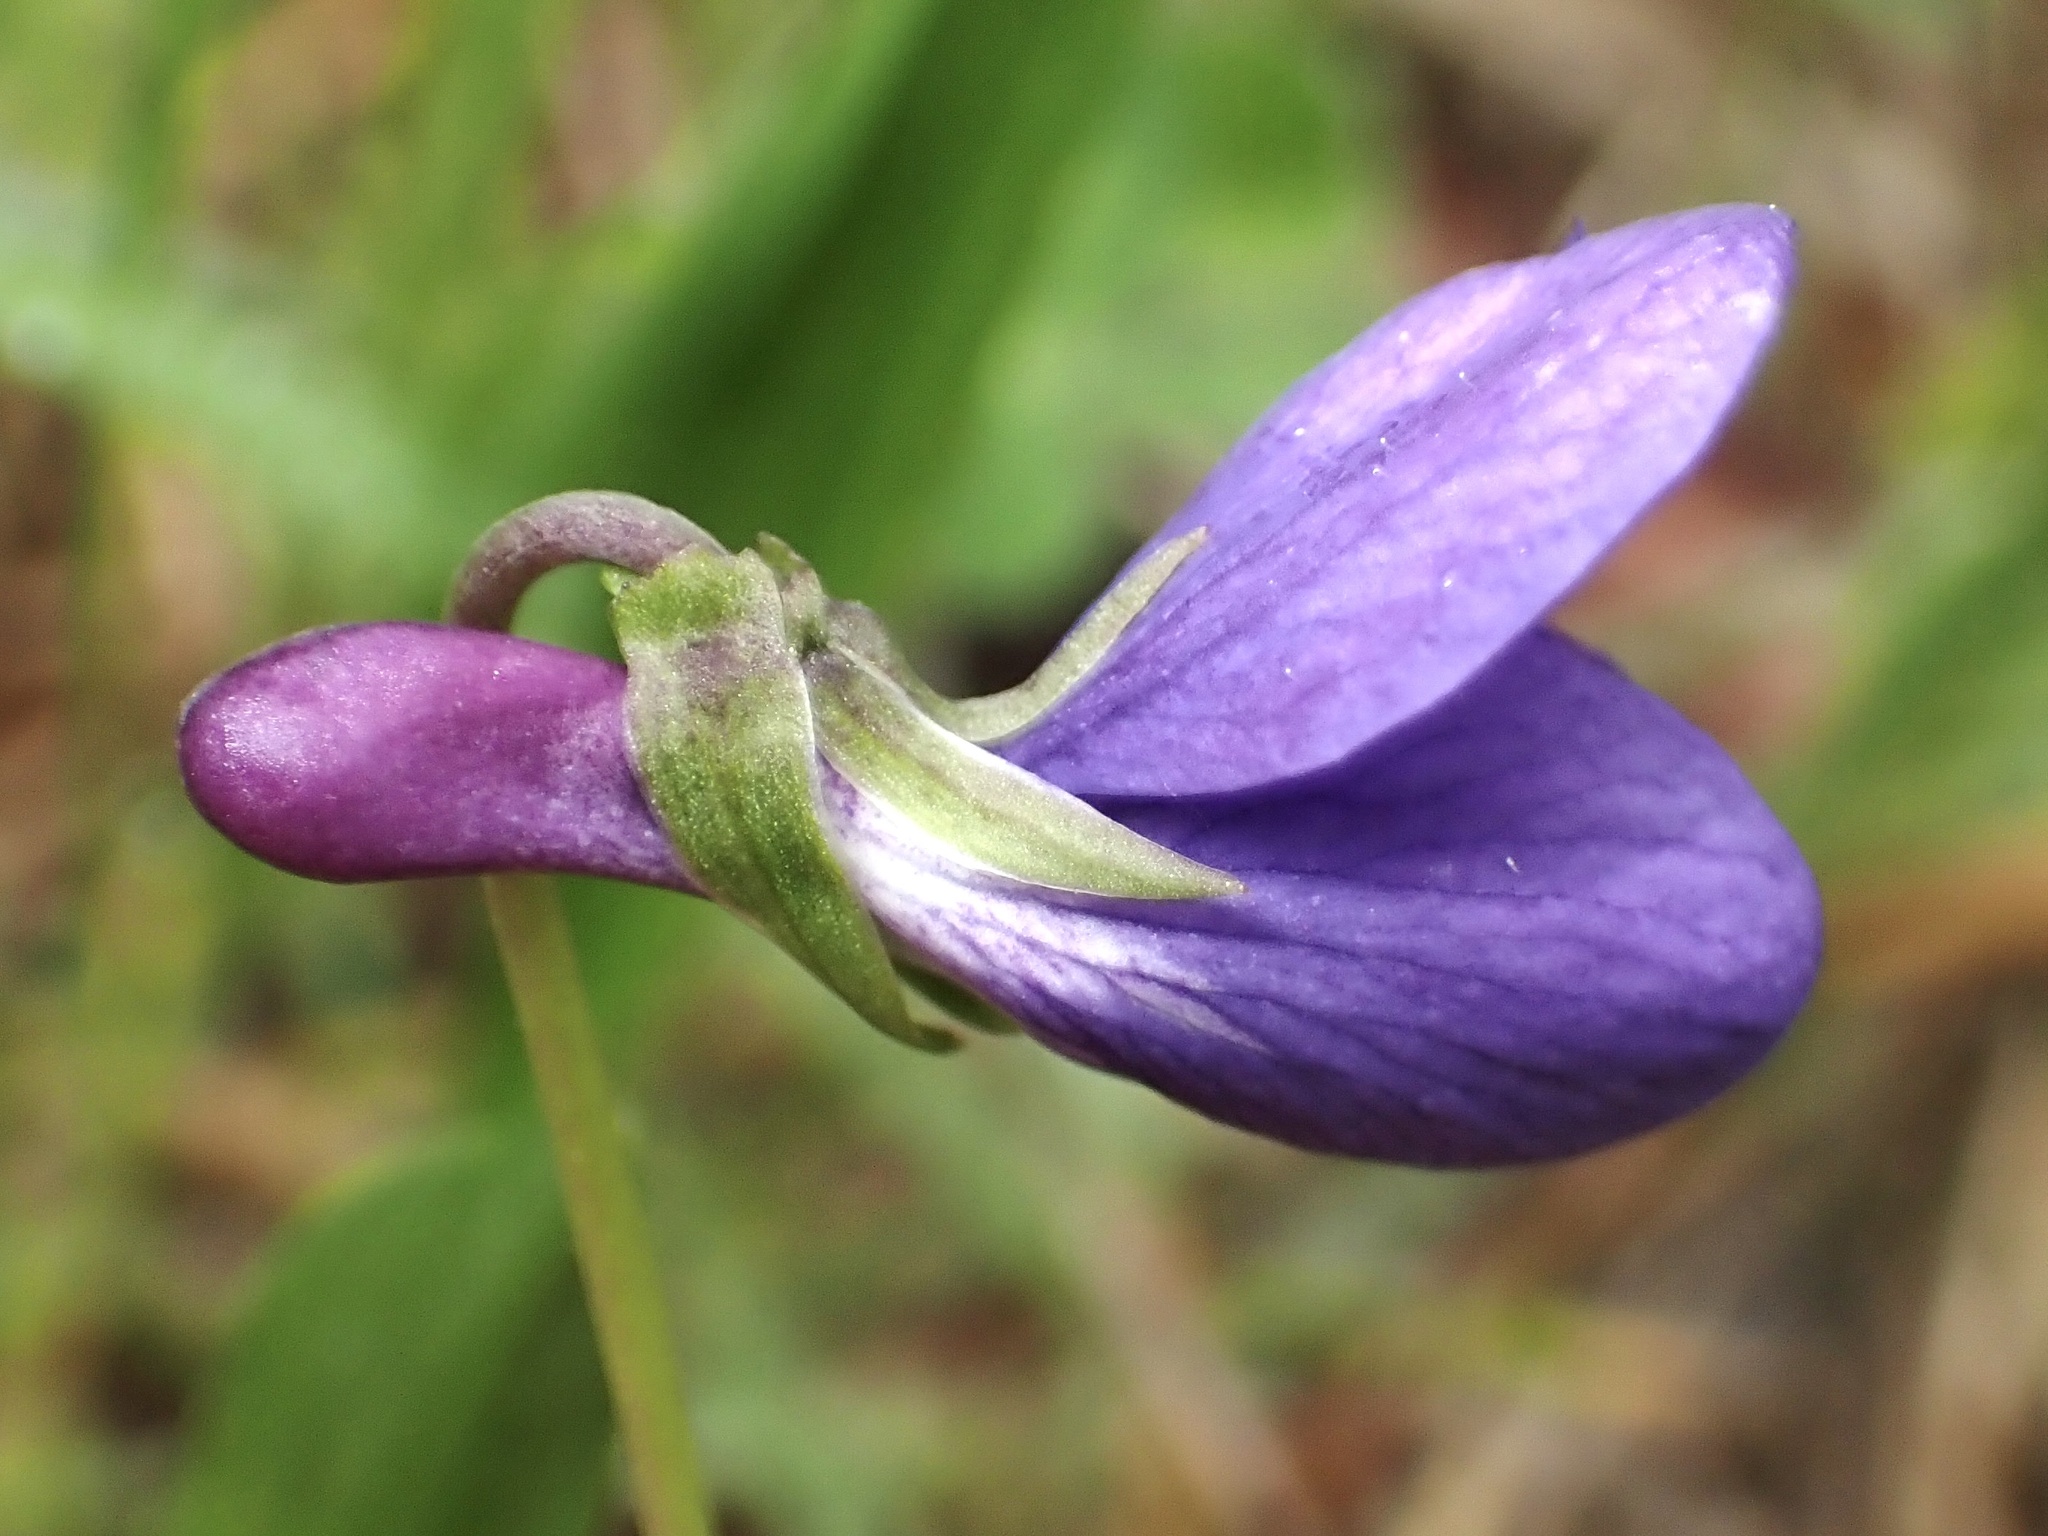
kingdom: Plantae
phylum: Tracheophyta
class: Magnoliopsida
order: Malpighiales
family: Violaceae
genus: Viola
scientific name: Viola adunca
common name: Sand violet
